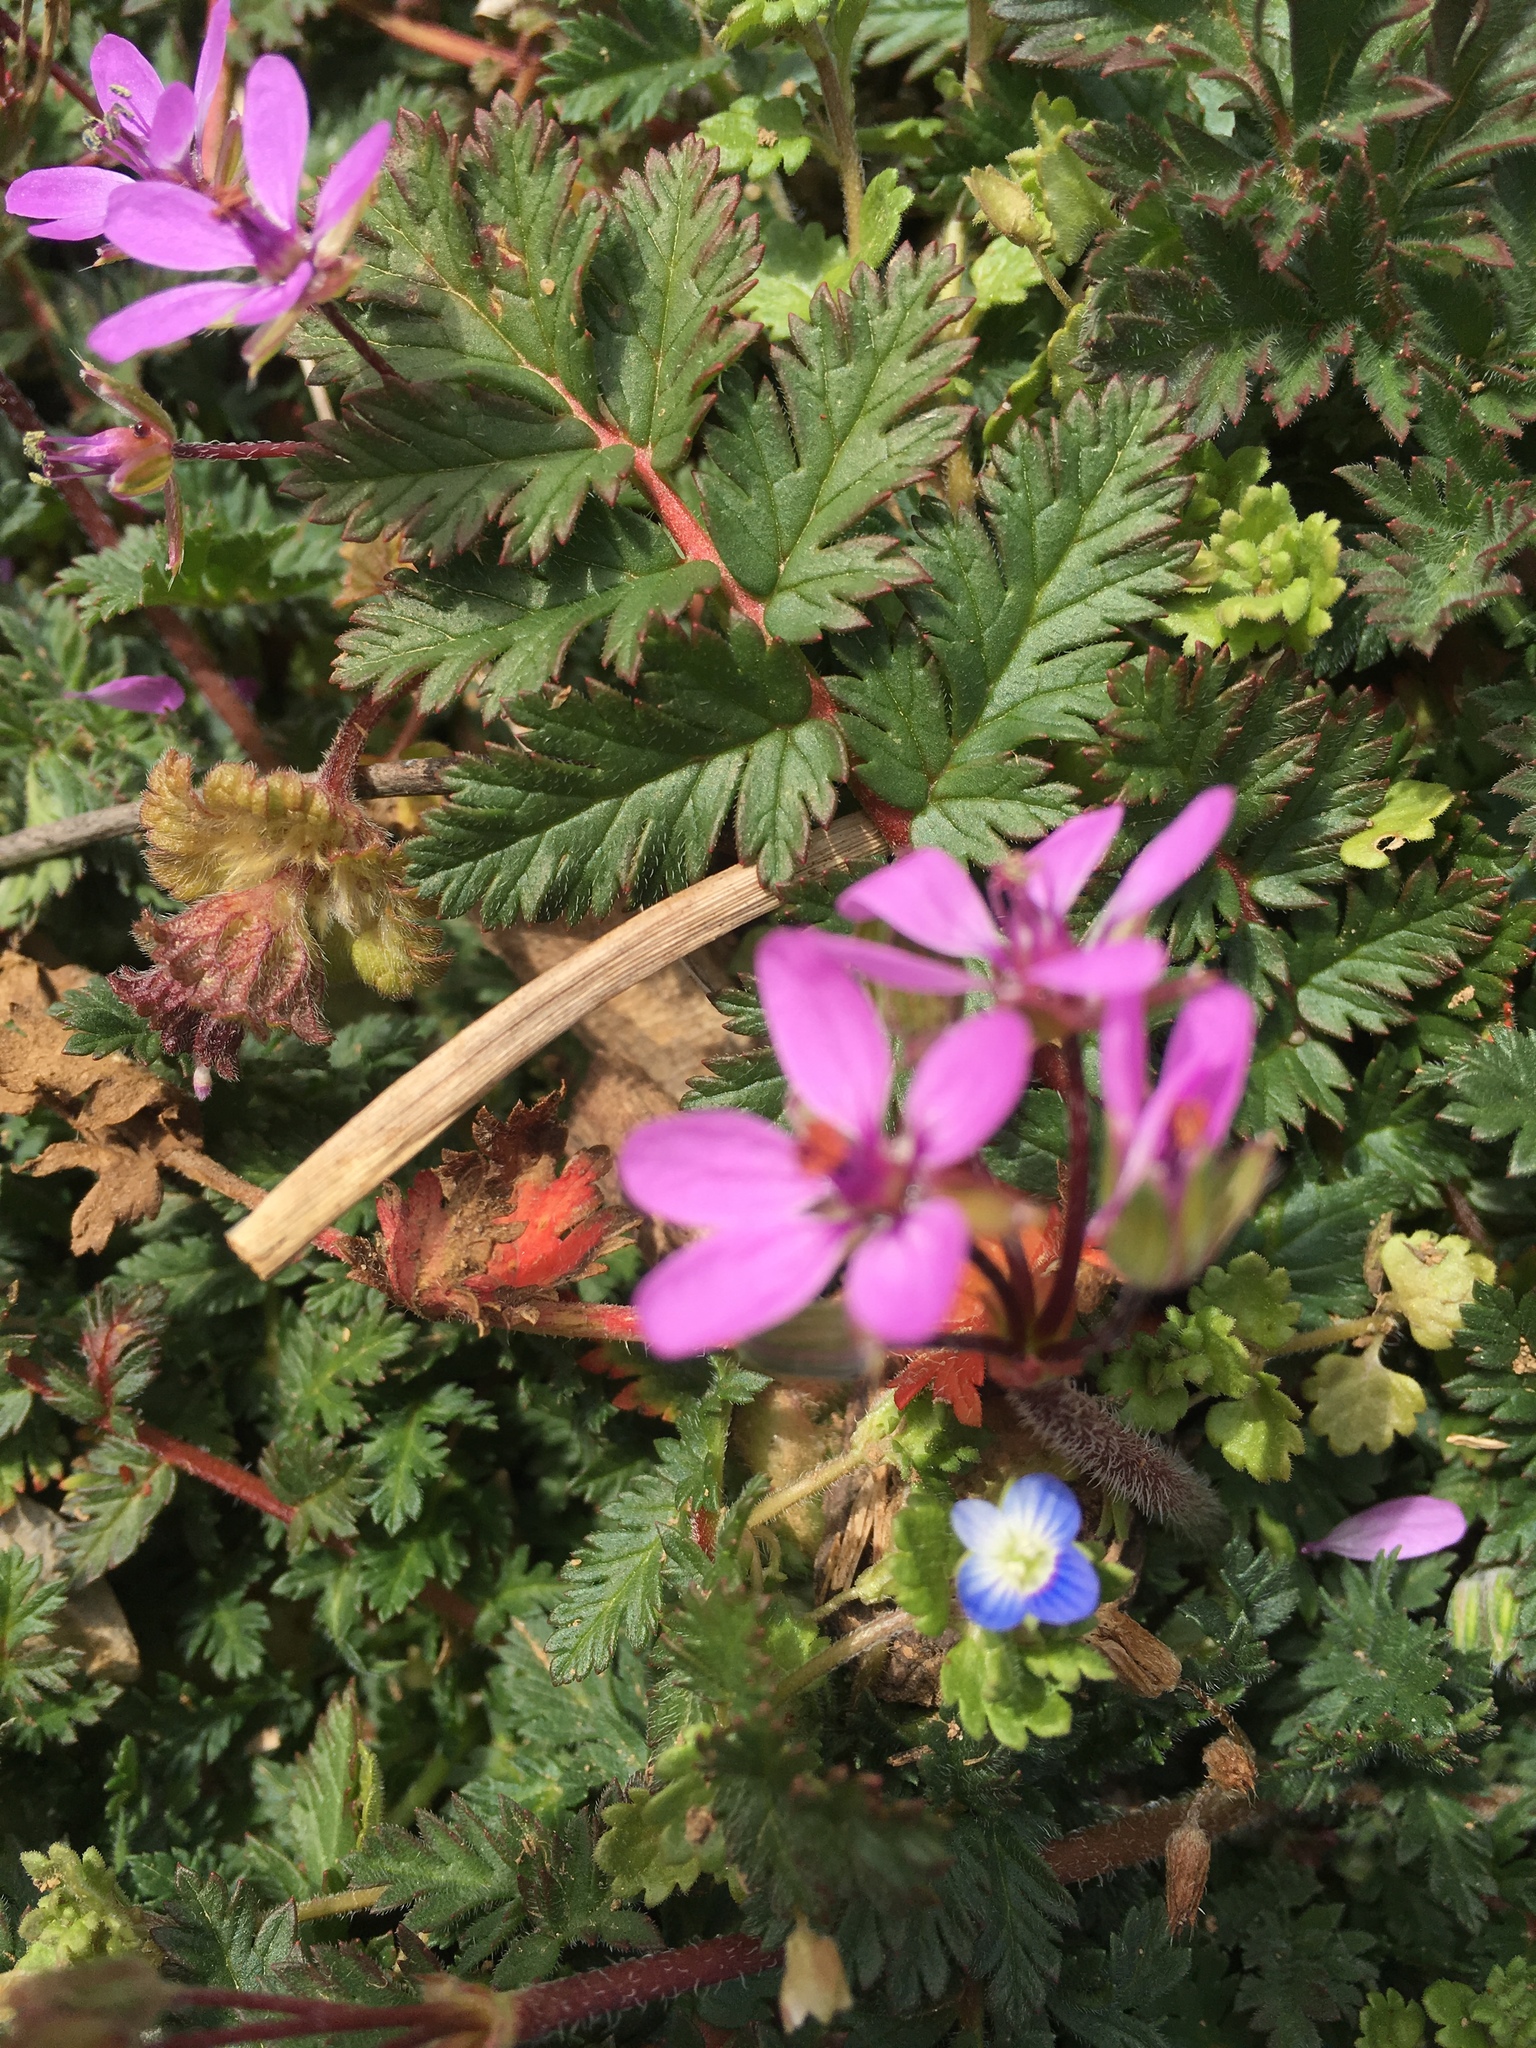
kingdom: Plantae
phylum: Tracheophyta
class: Magnoliopsida
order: Geraniales
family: Geraniaceae
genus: Erodium
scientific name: Erodium cicutarium
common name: Common stork's-bill
